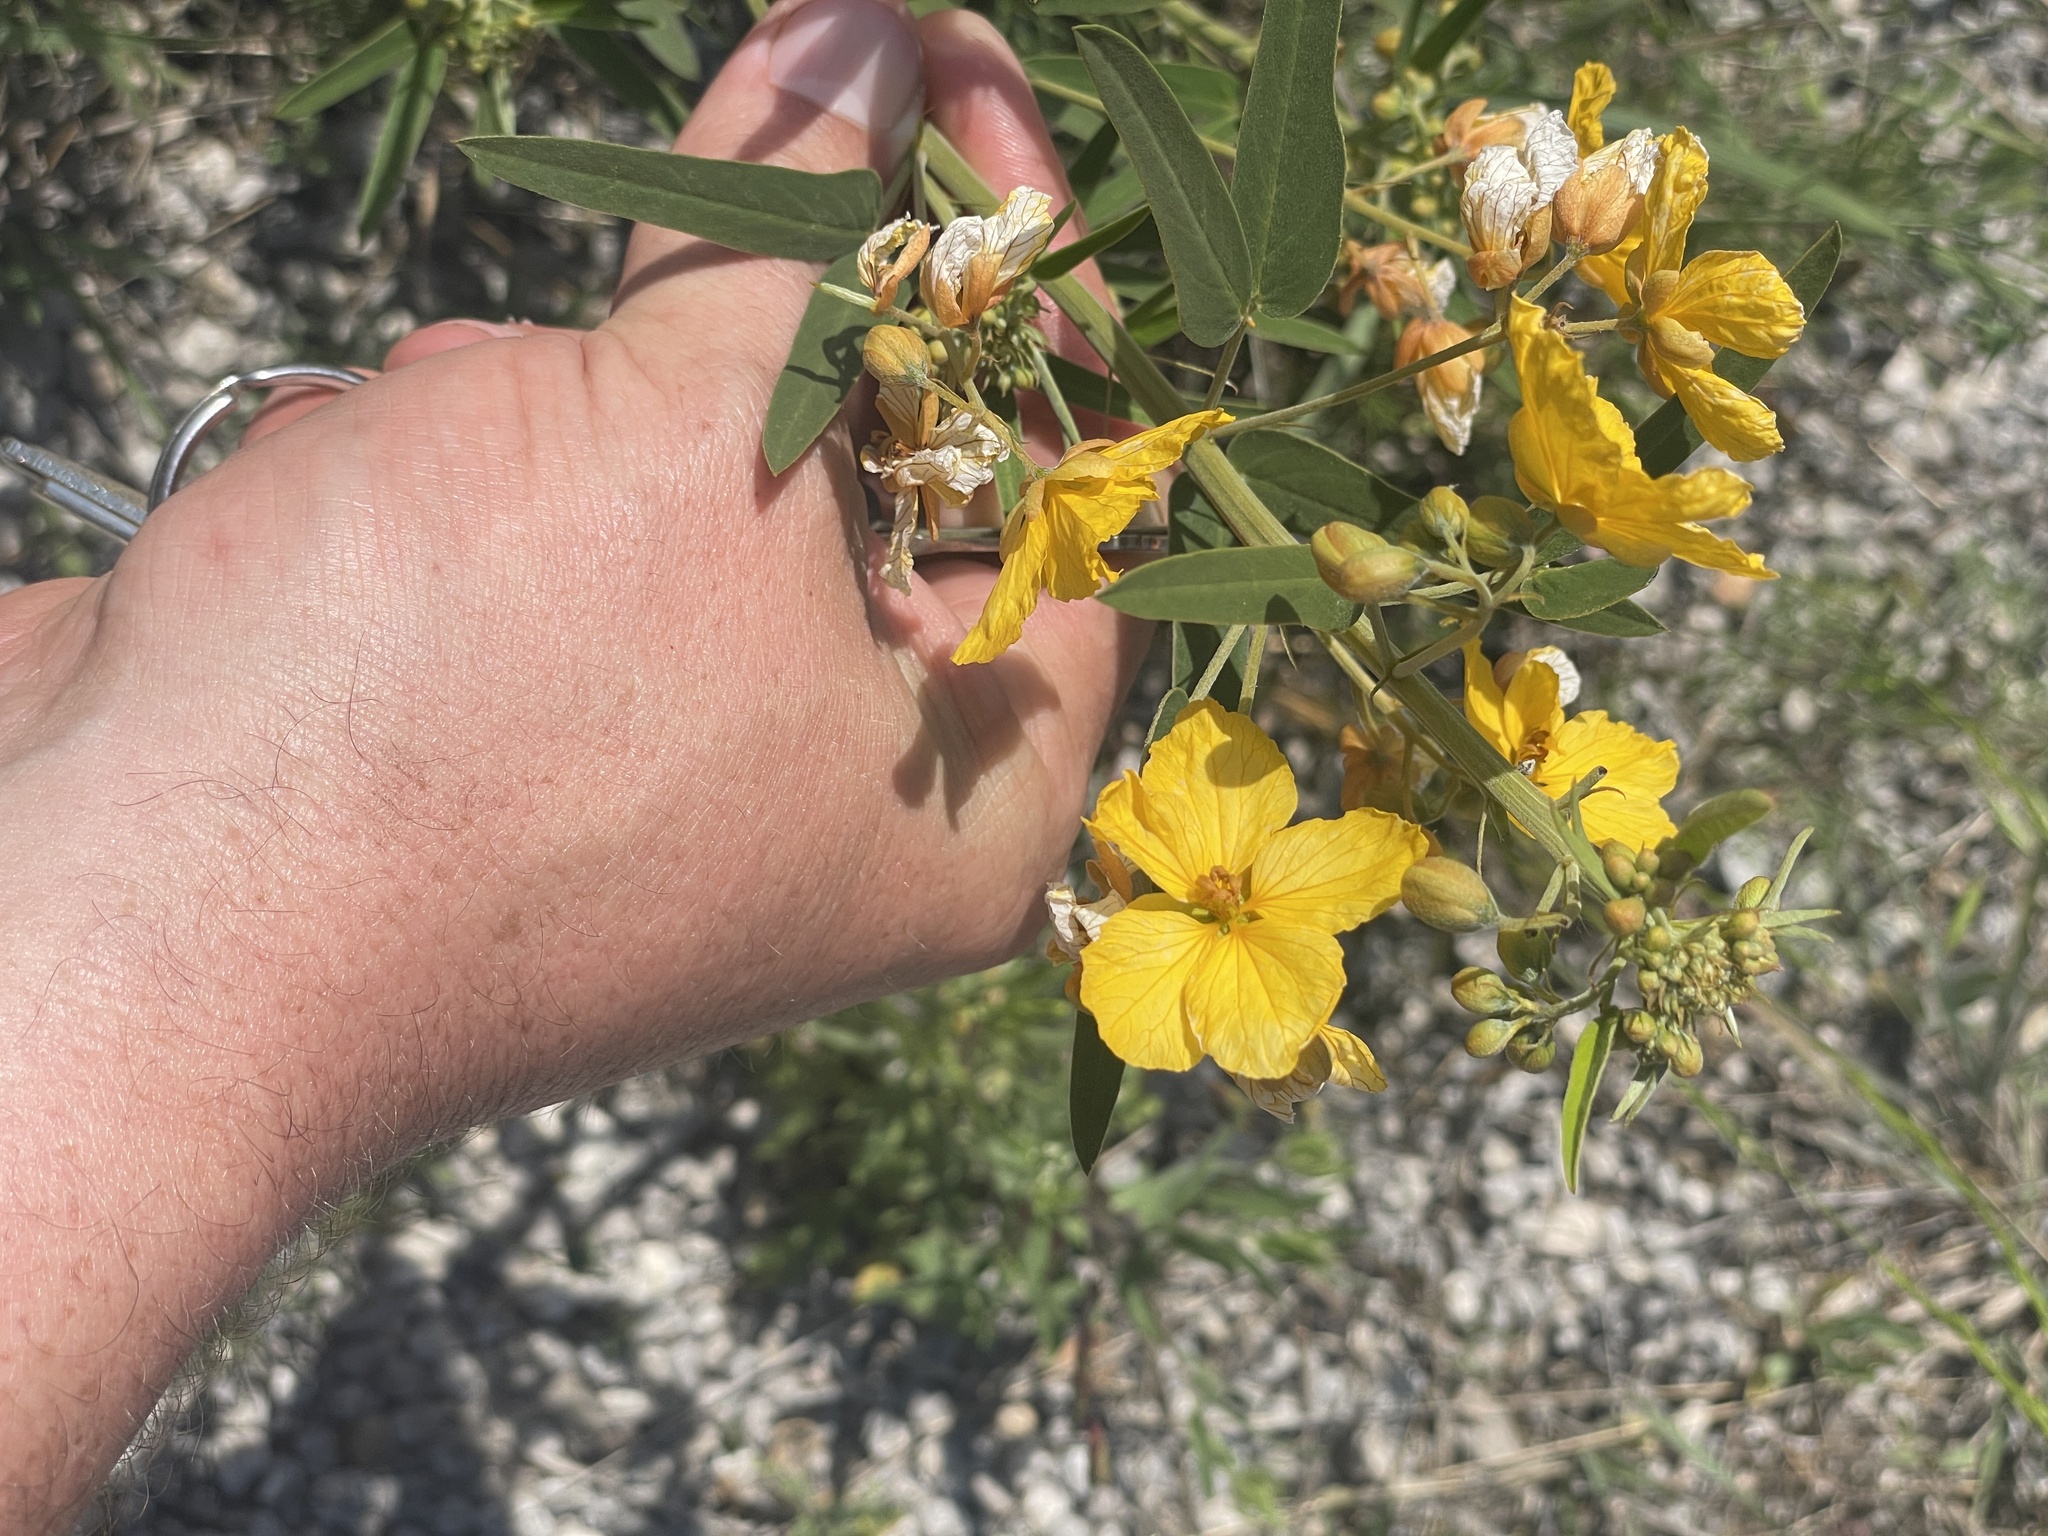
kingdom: Plantae
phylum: Tracheophyta
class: Magnoliopsida
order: Fabales
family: Fabaceae
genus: Senna
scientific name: Senna roemeriana
